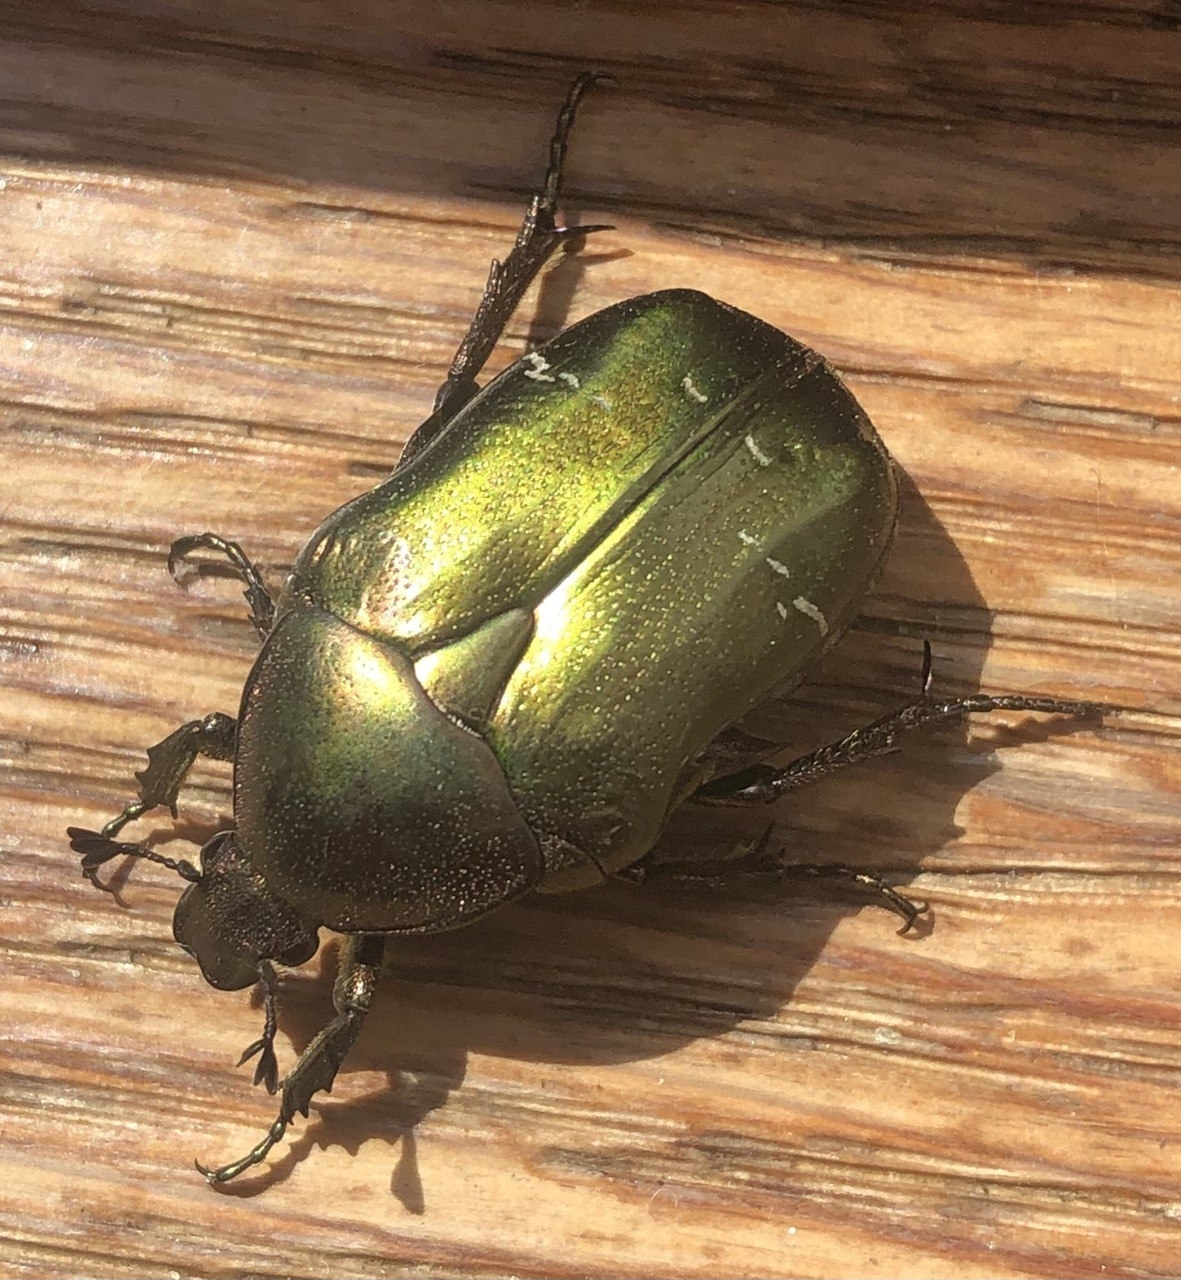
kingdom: Animalia
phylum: Arthropoda
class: Insecta
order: Coleoptera
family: Scarabaeidae
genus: Cetonia
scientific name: Cetonia aurata
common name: Rose chafer
